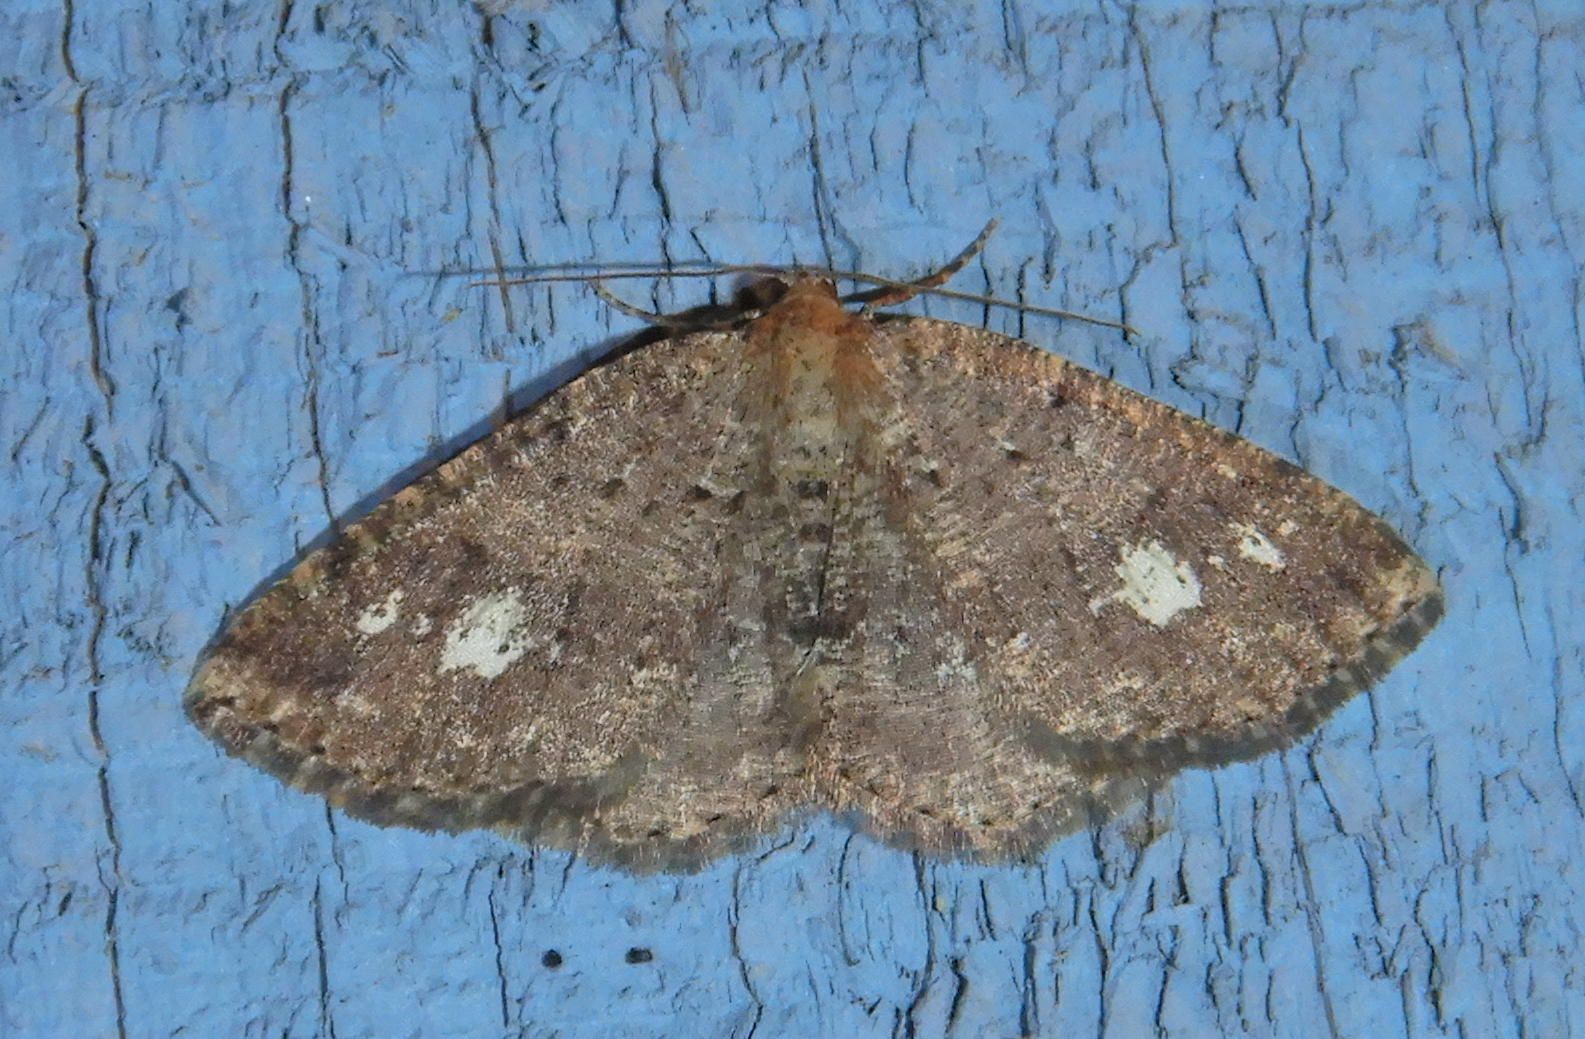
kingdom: Animalia
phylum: Arthropoda
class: Insecta
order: Lepidoptera
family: Geometridae
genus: Homochlodes
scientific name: Homochlodes fritillaria
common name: Pale homochlodes
